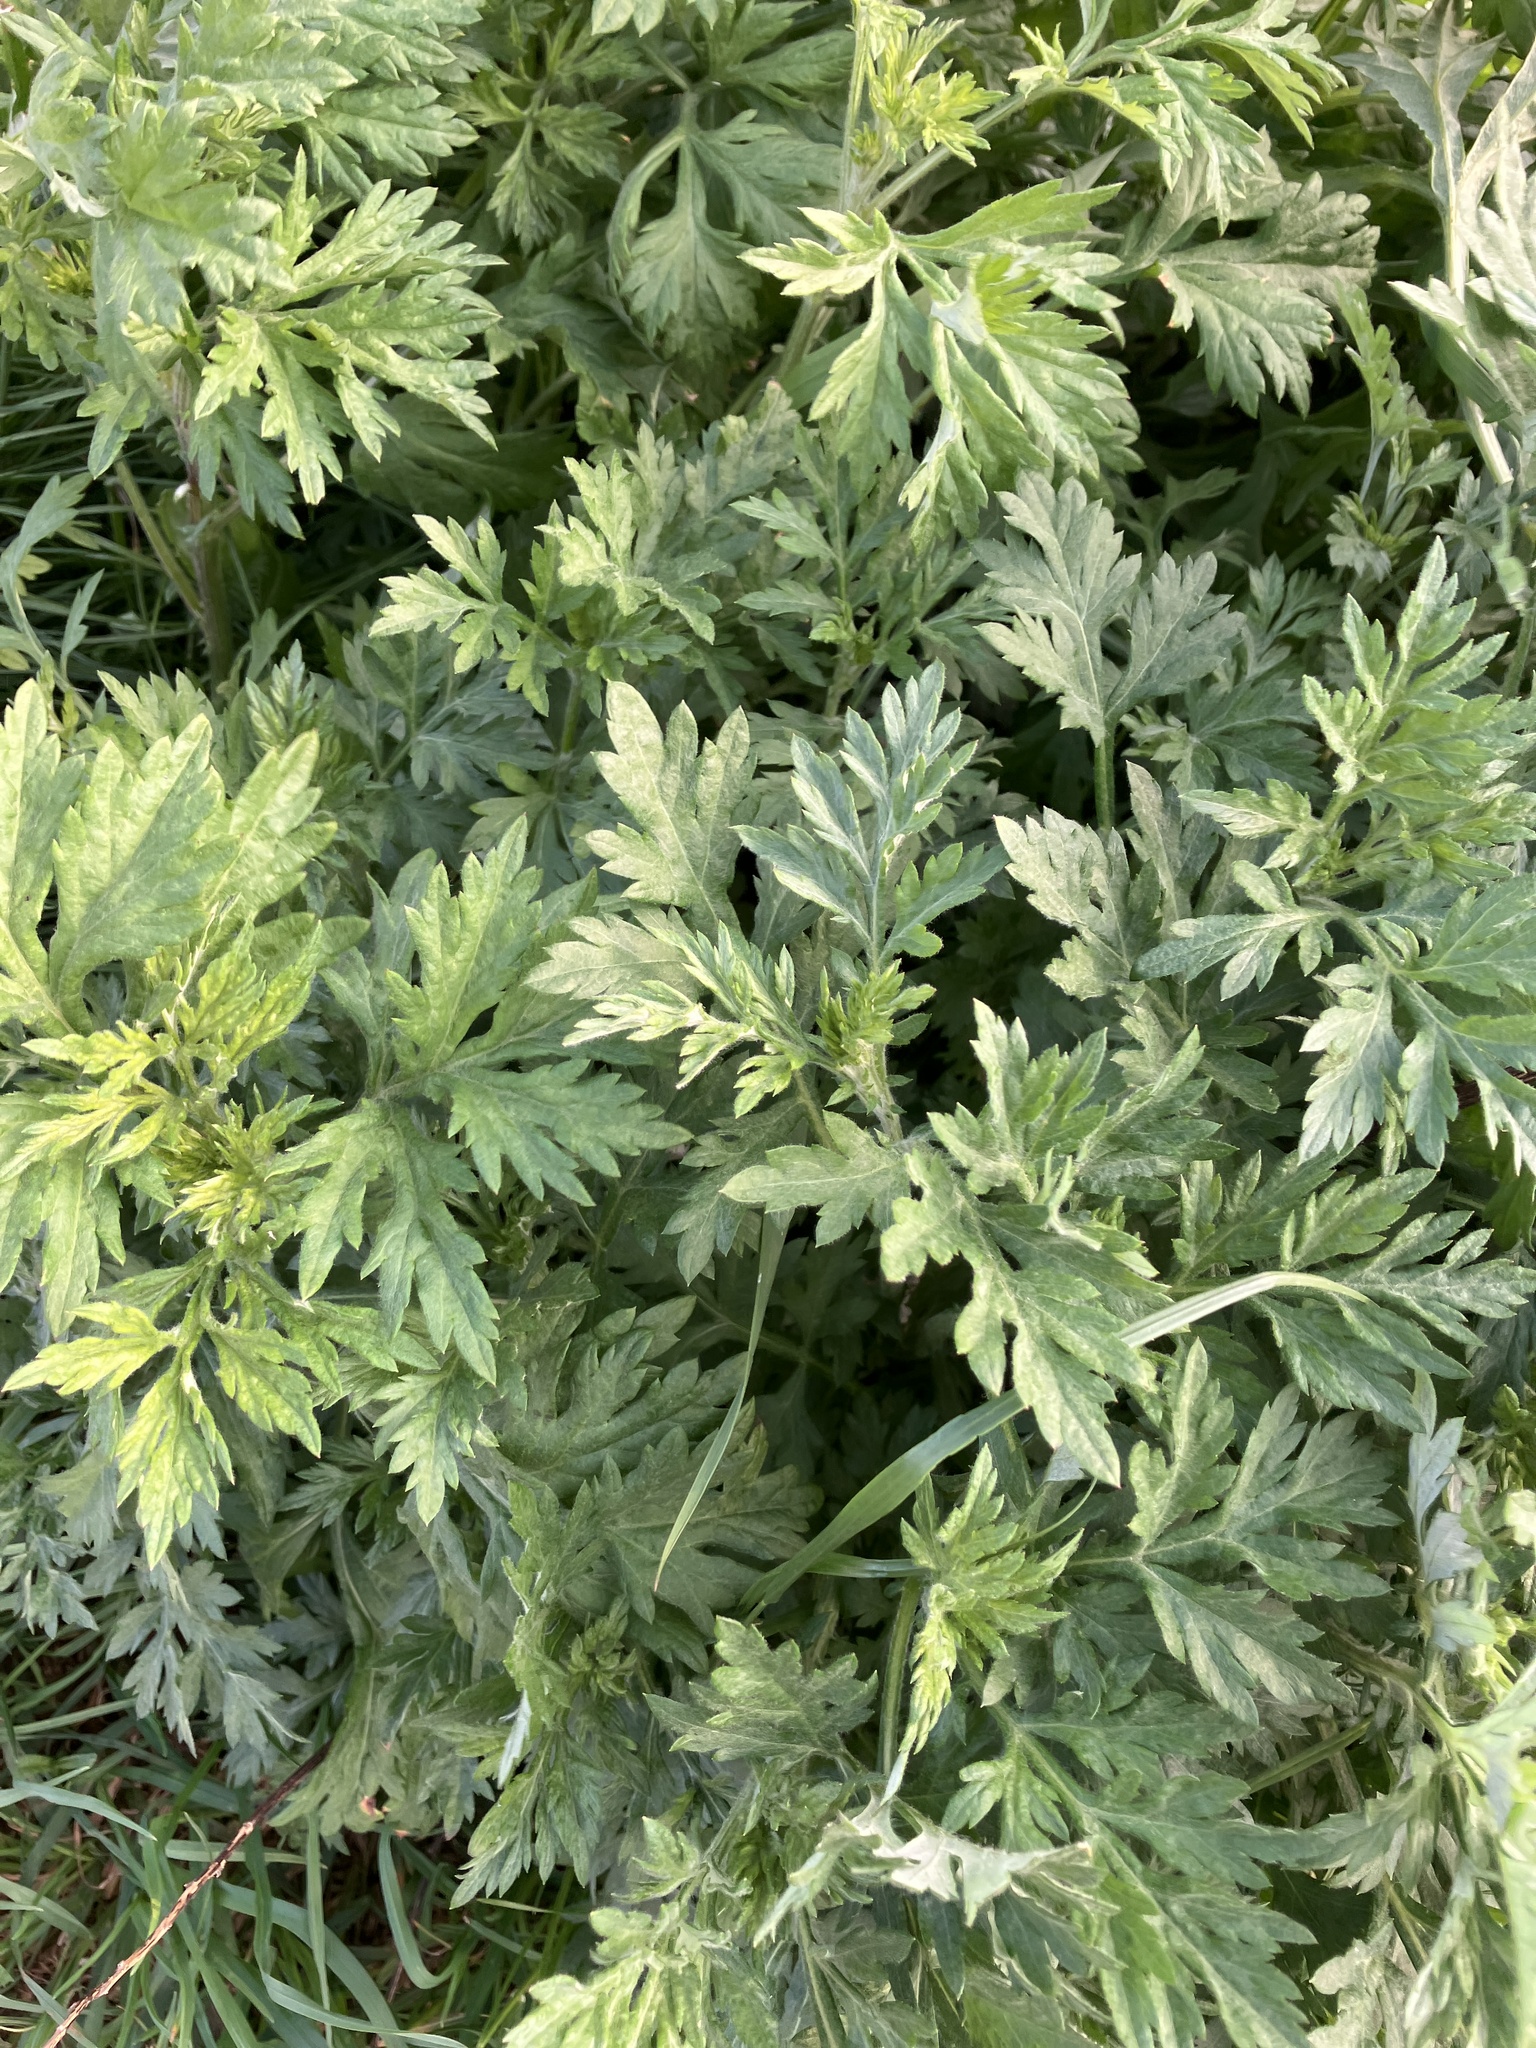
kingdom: Plantae
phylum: Tracheophyta
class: Magnoliopsida
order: Asterales
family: Asteraceae
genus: Artemisia
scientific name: Artemisia vulgaris
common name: Mugwort
